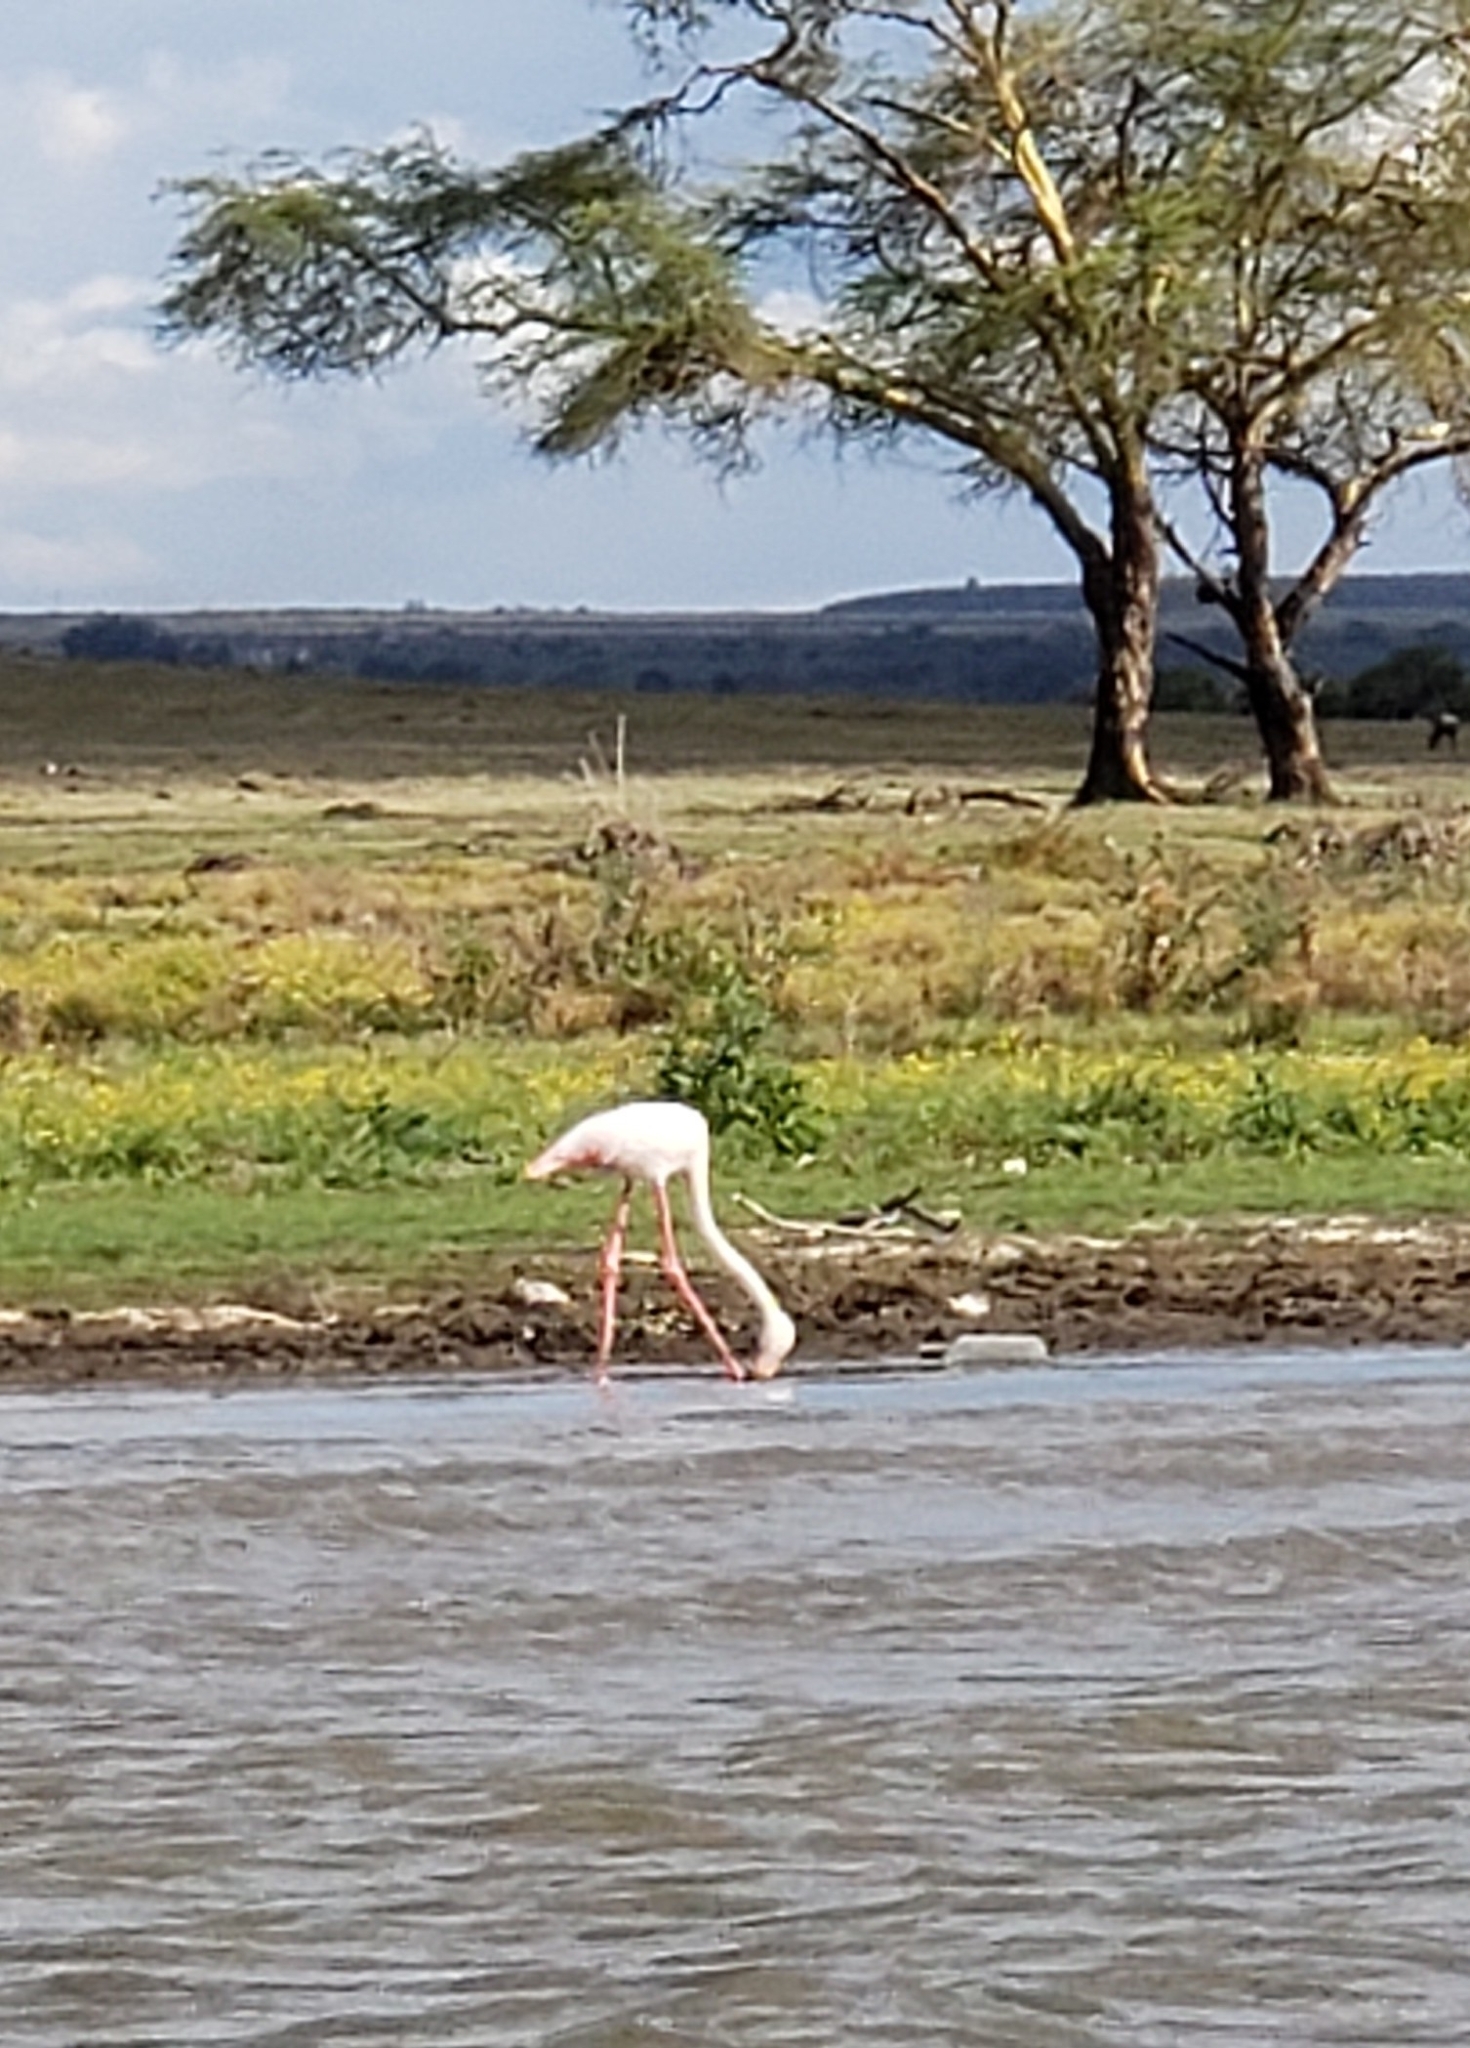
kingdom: Animalia
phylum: Chordata
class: Aves
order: Phoenicopteriformes
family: Phoenicopteridae
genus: Phoenicopterus
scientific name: Phoenicopterus roseus
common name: Greater flamingo
